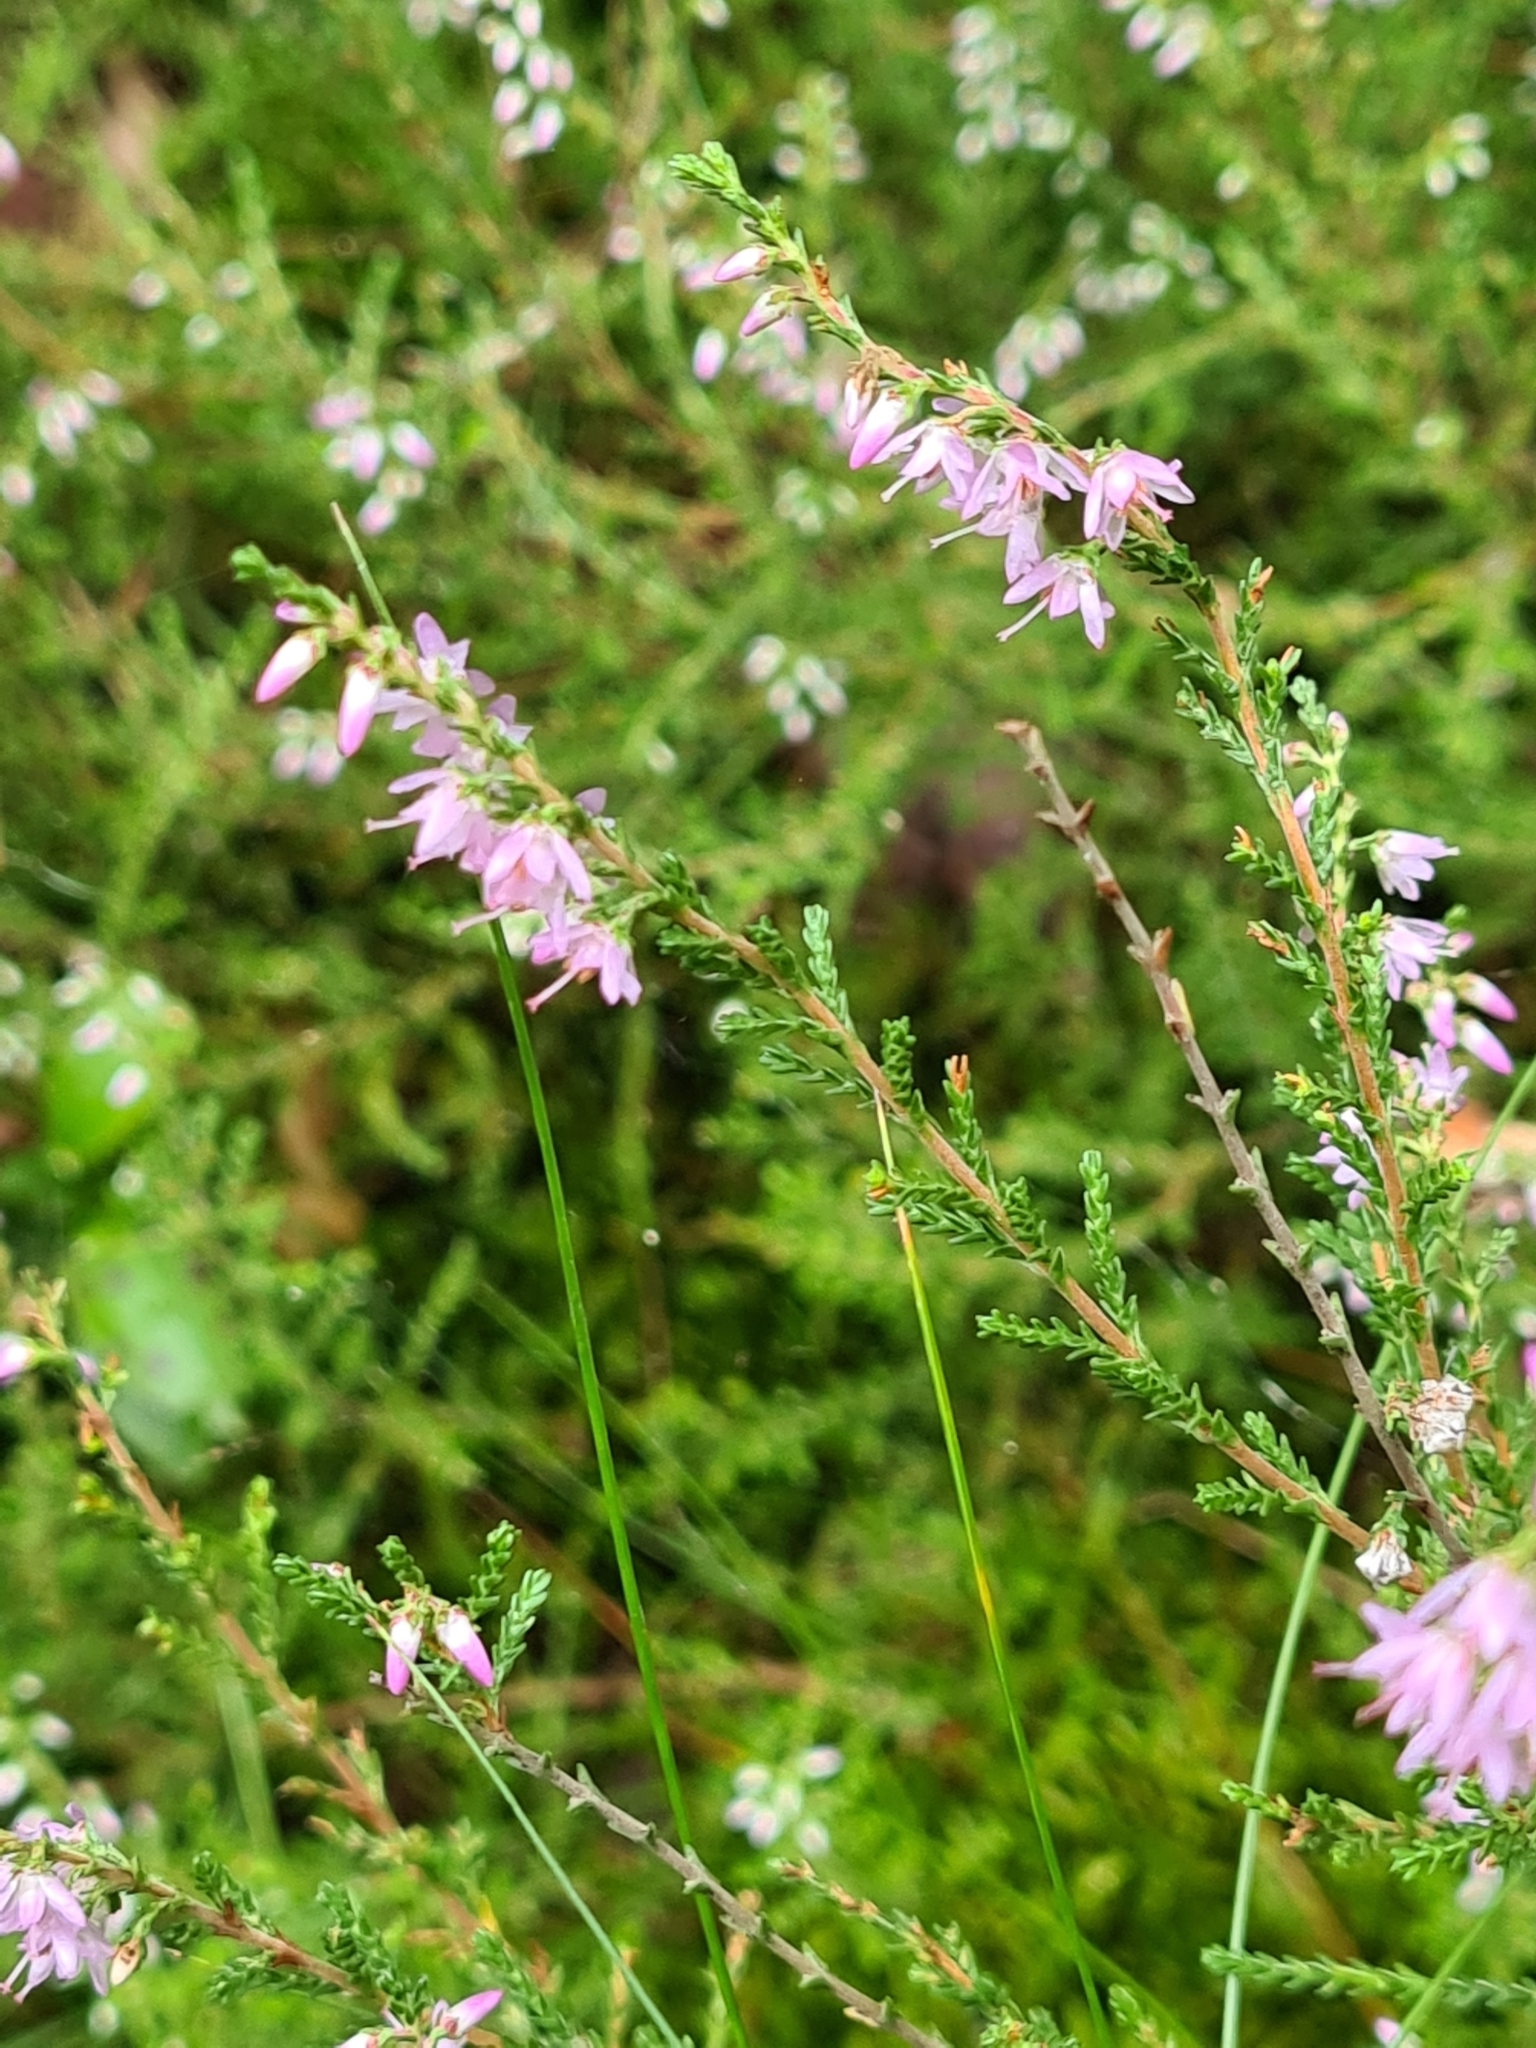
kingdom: Plantae
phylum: Tracheophyta
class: Magnoliopsida
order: Ericales
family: Ericaceae
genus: Calluna
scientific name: Calluna vulgaris
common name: Heather
